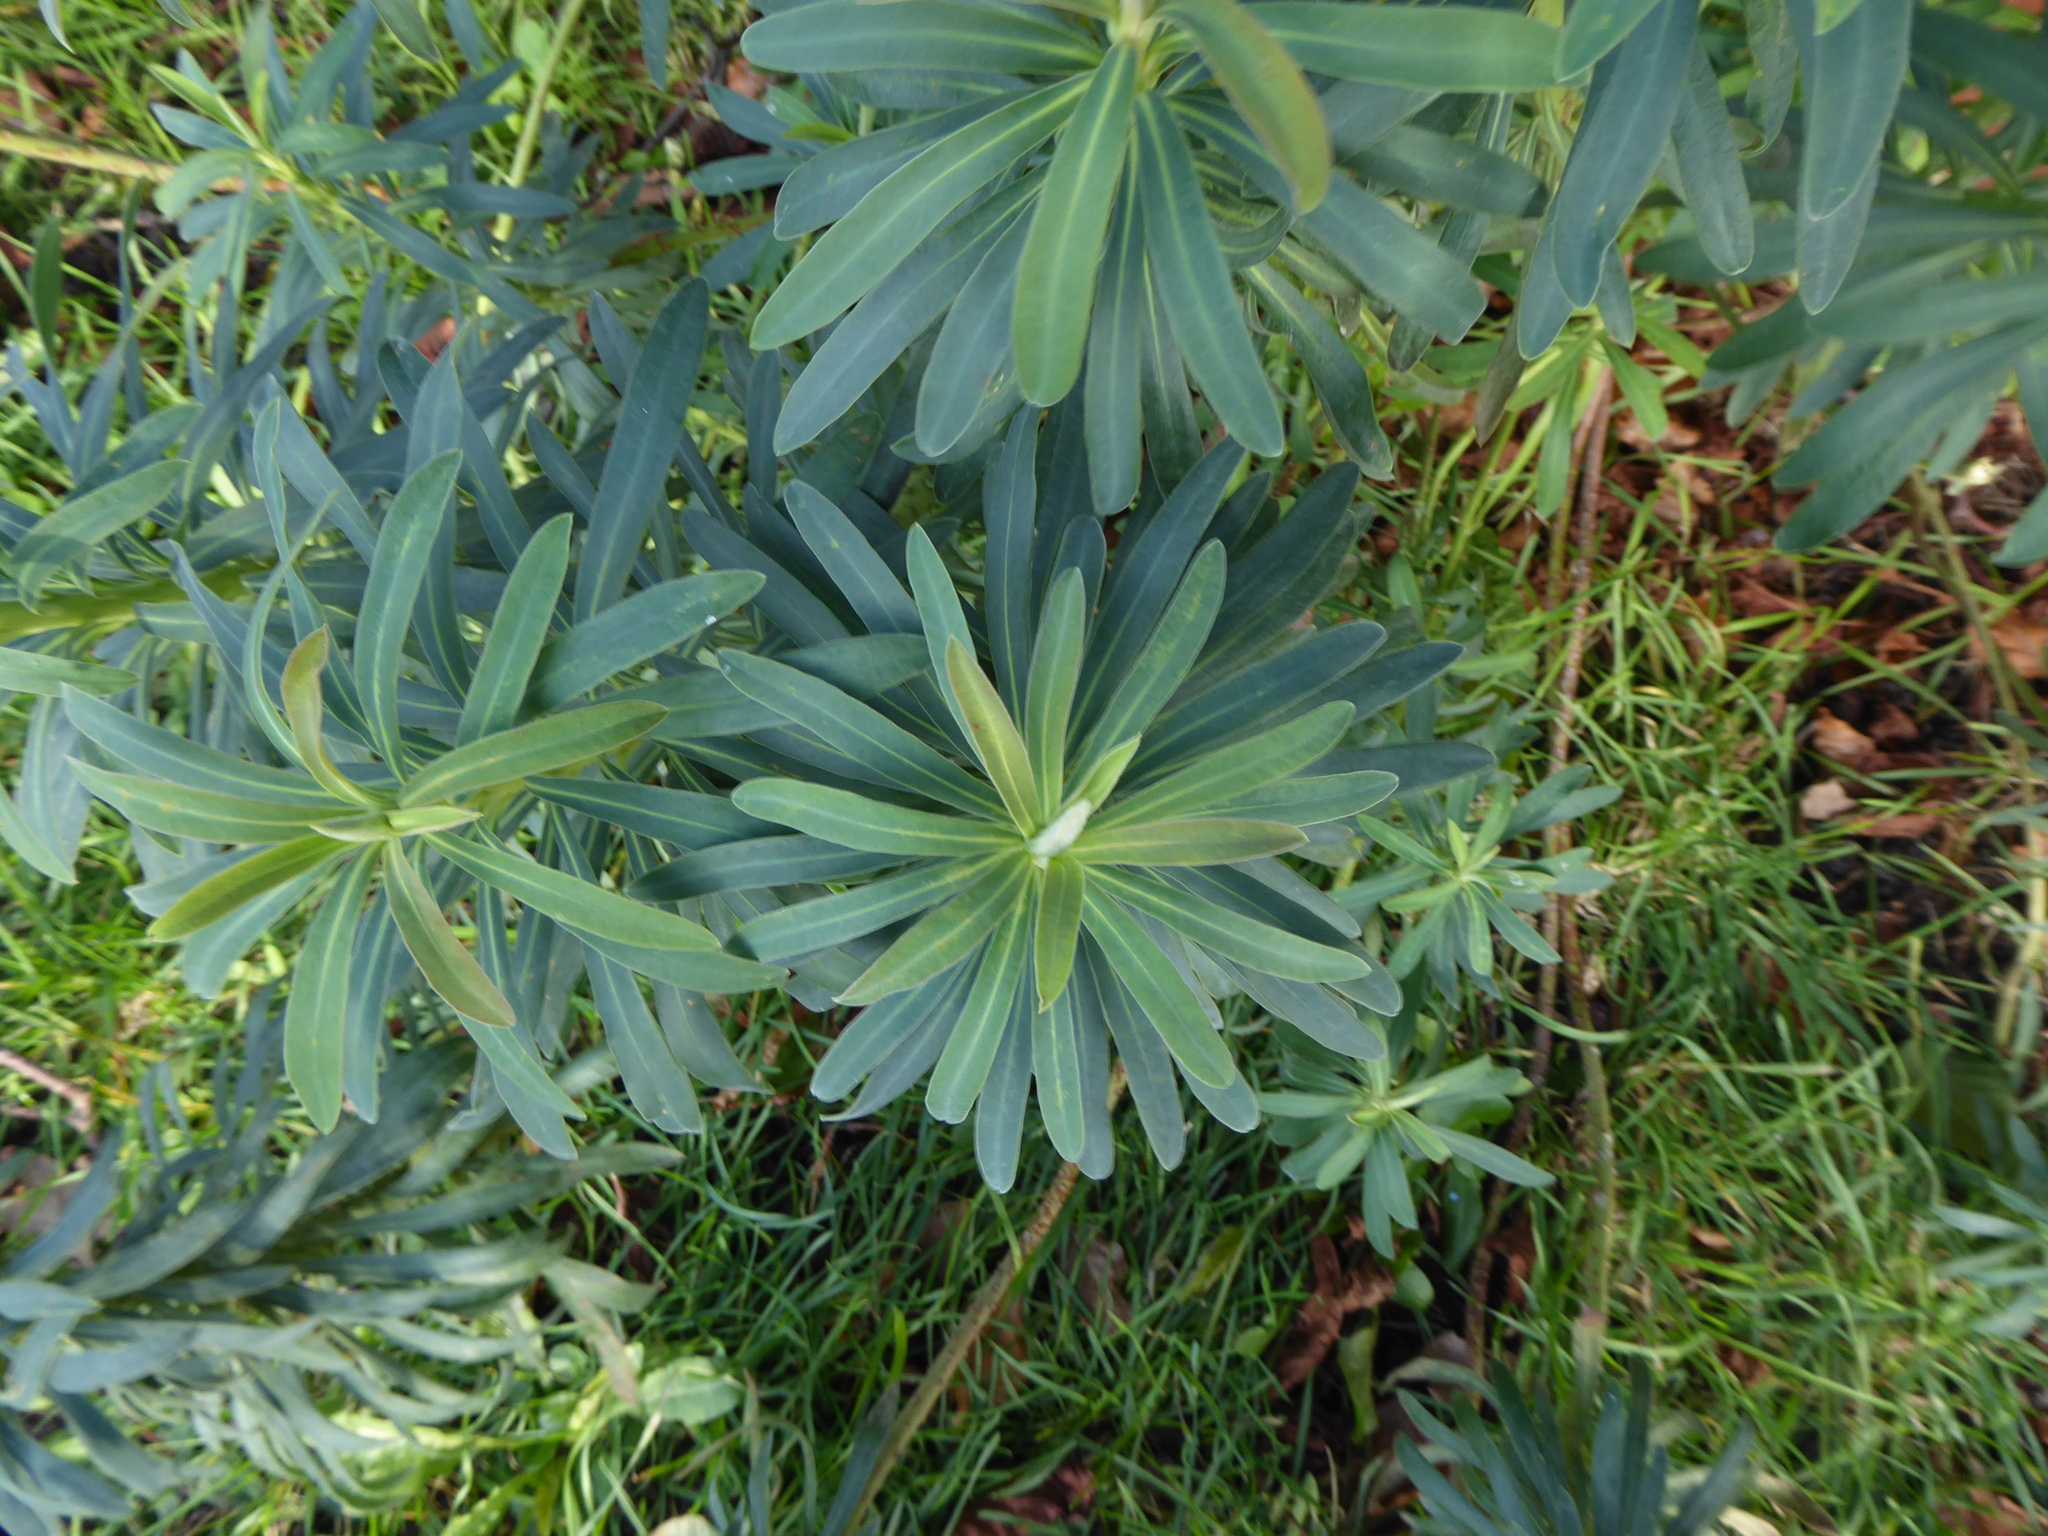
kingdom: Plantae
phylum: Tracheophyta
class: Magnoliopsida
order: Malpighiales
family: Euphorbiaceae
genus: Euphorbia
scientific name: Euphorbia characias
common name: Mediterranean spurge
